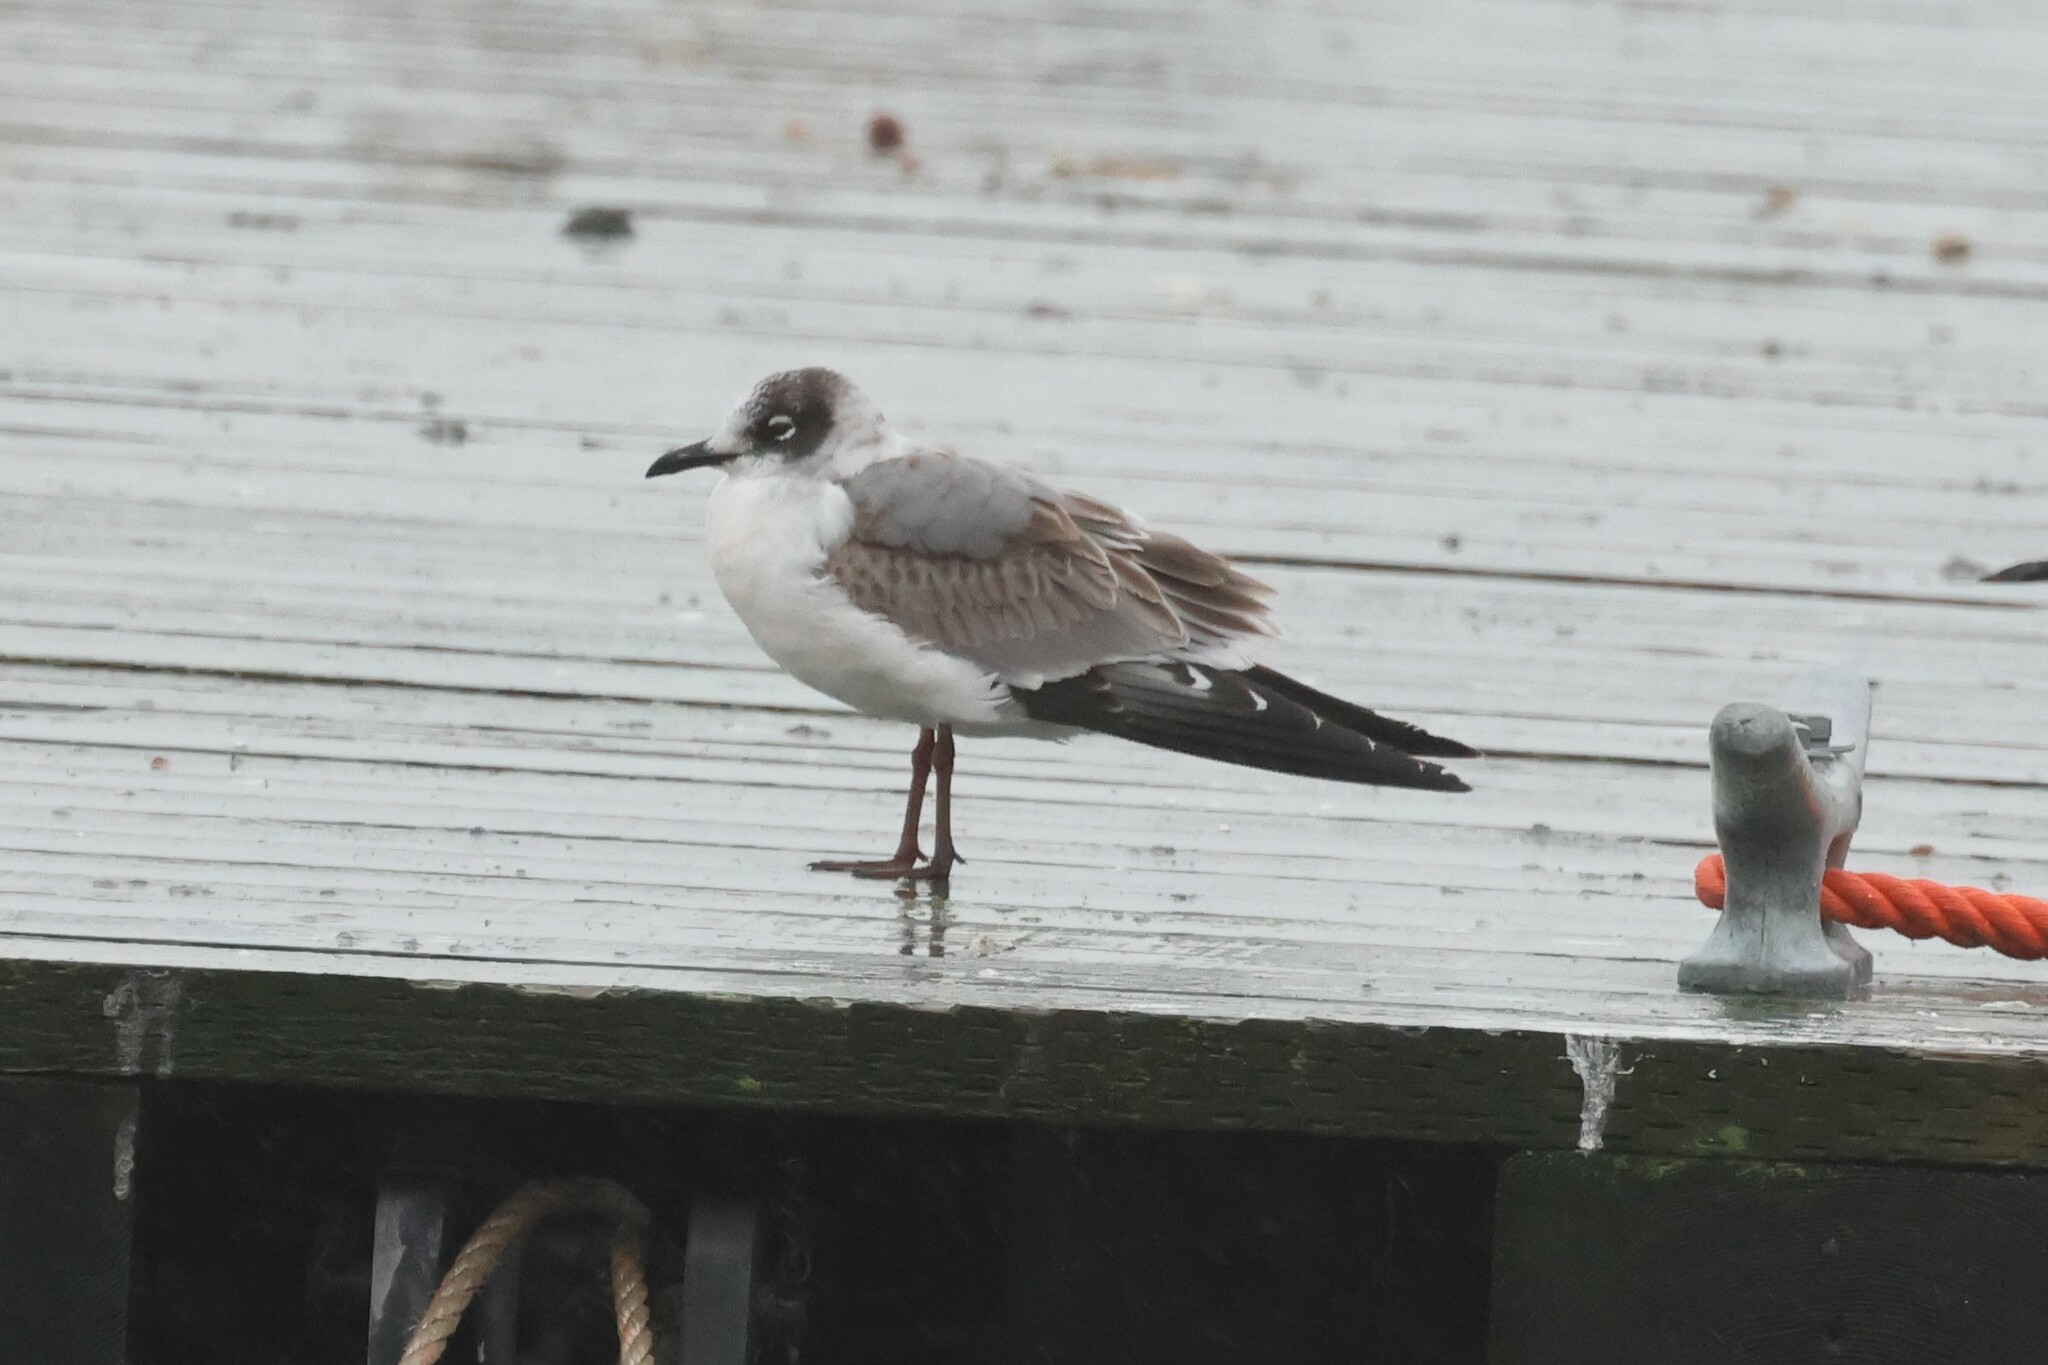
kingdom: Animalia
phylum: Chordata
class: Aves
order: Charadriiformes
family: Laridae
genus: Leucophaeus
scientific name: Leucophaeus pipixcan
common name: Franklin's gull
